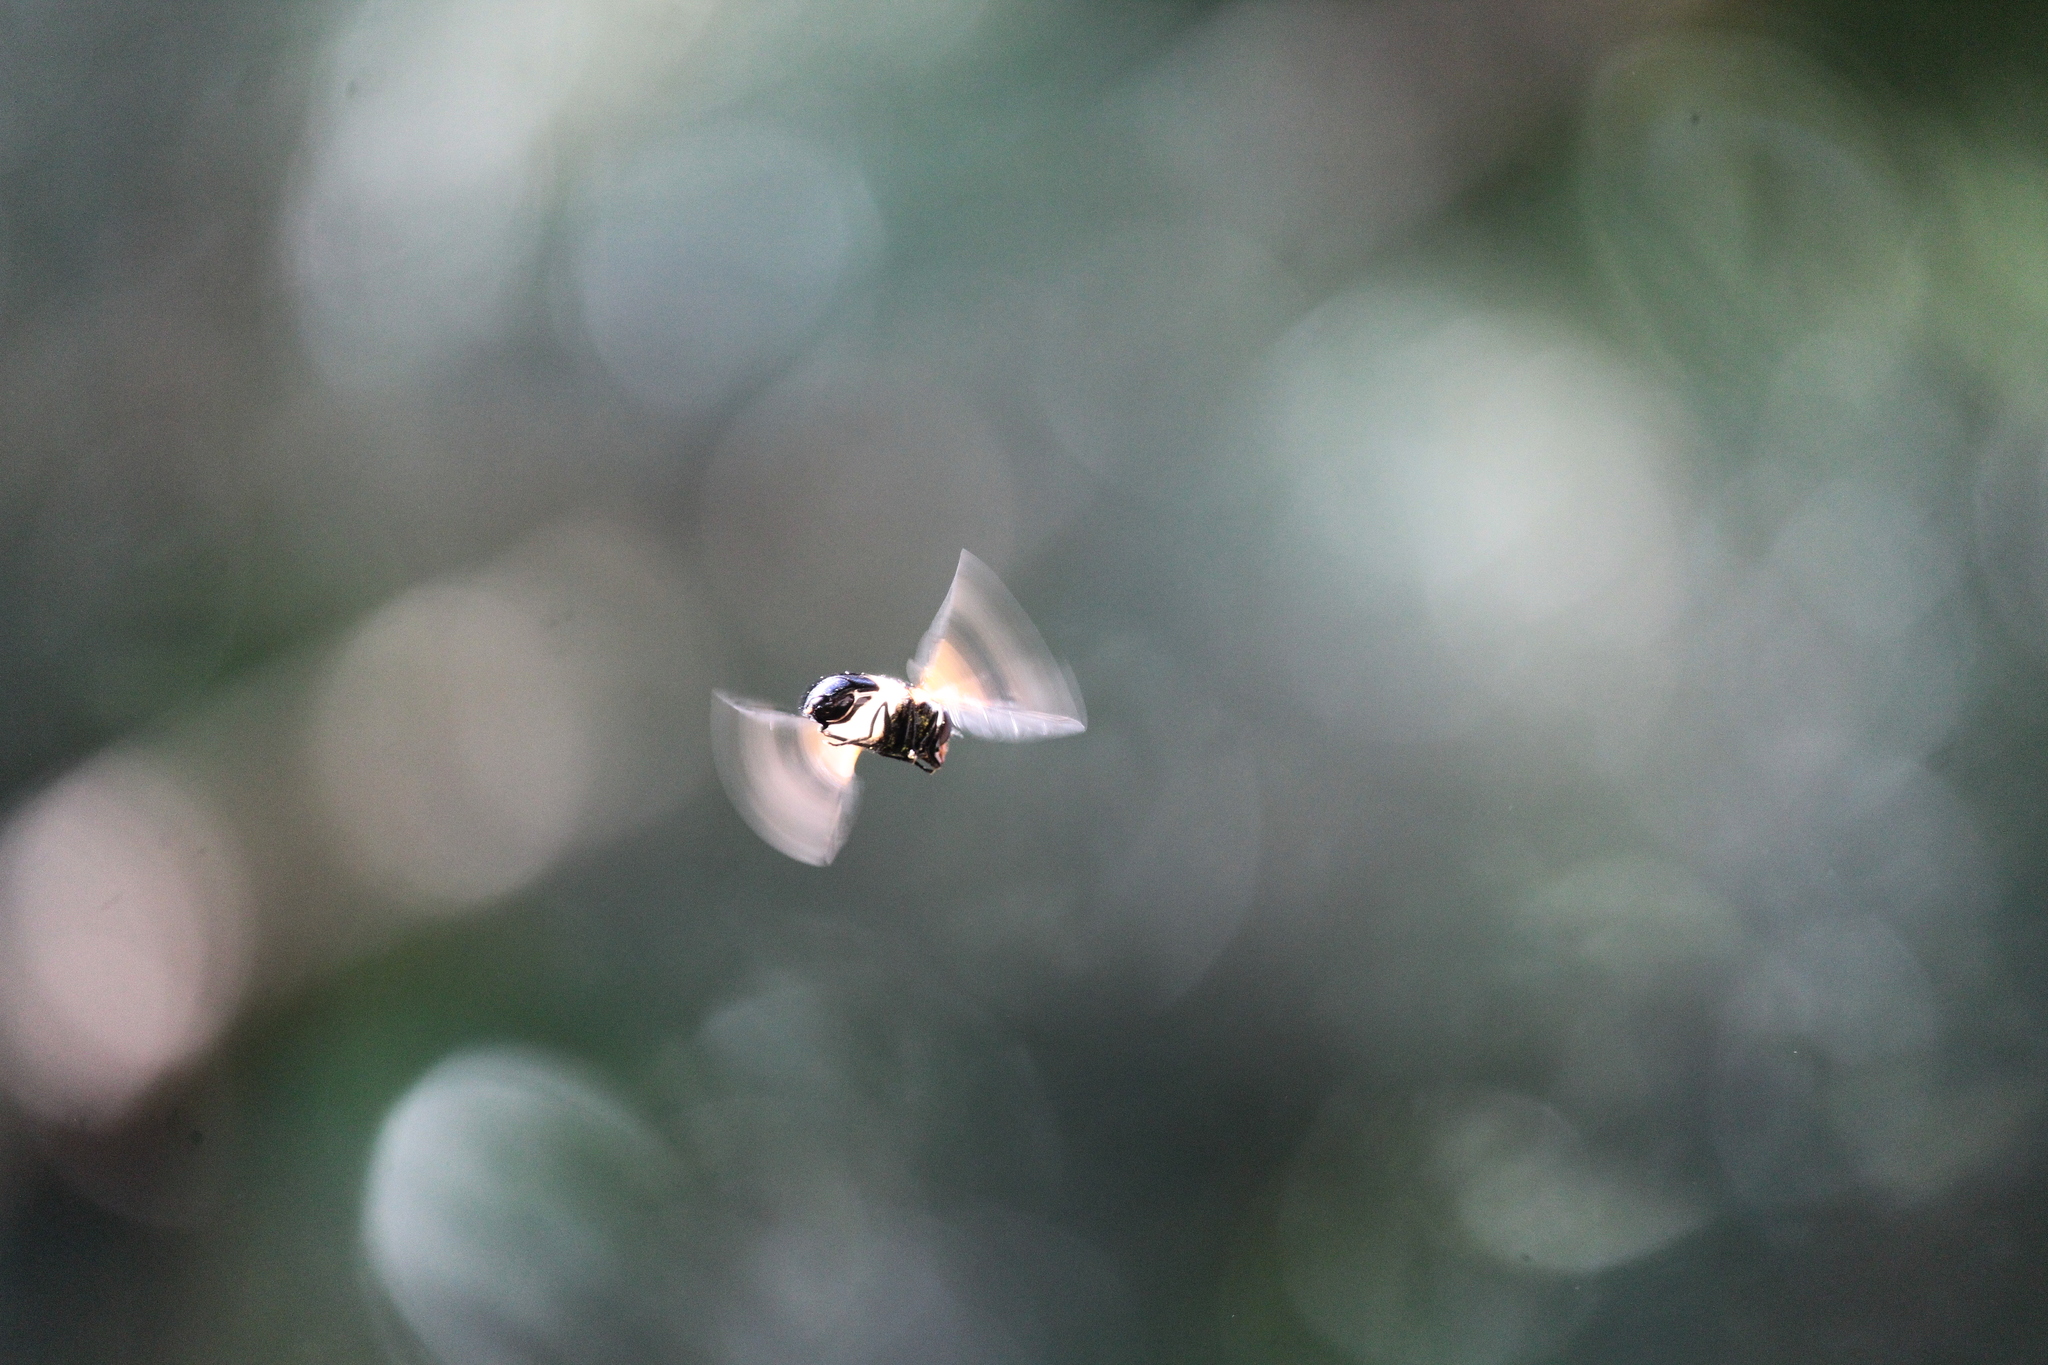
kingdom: Animalia
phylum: Arthropoda
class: Insecta
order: Diptera
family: Syrphidae
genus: Volucella
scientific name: Volucella pellucens
